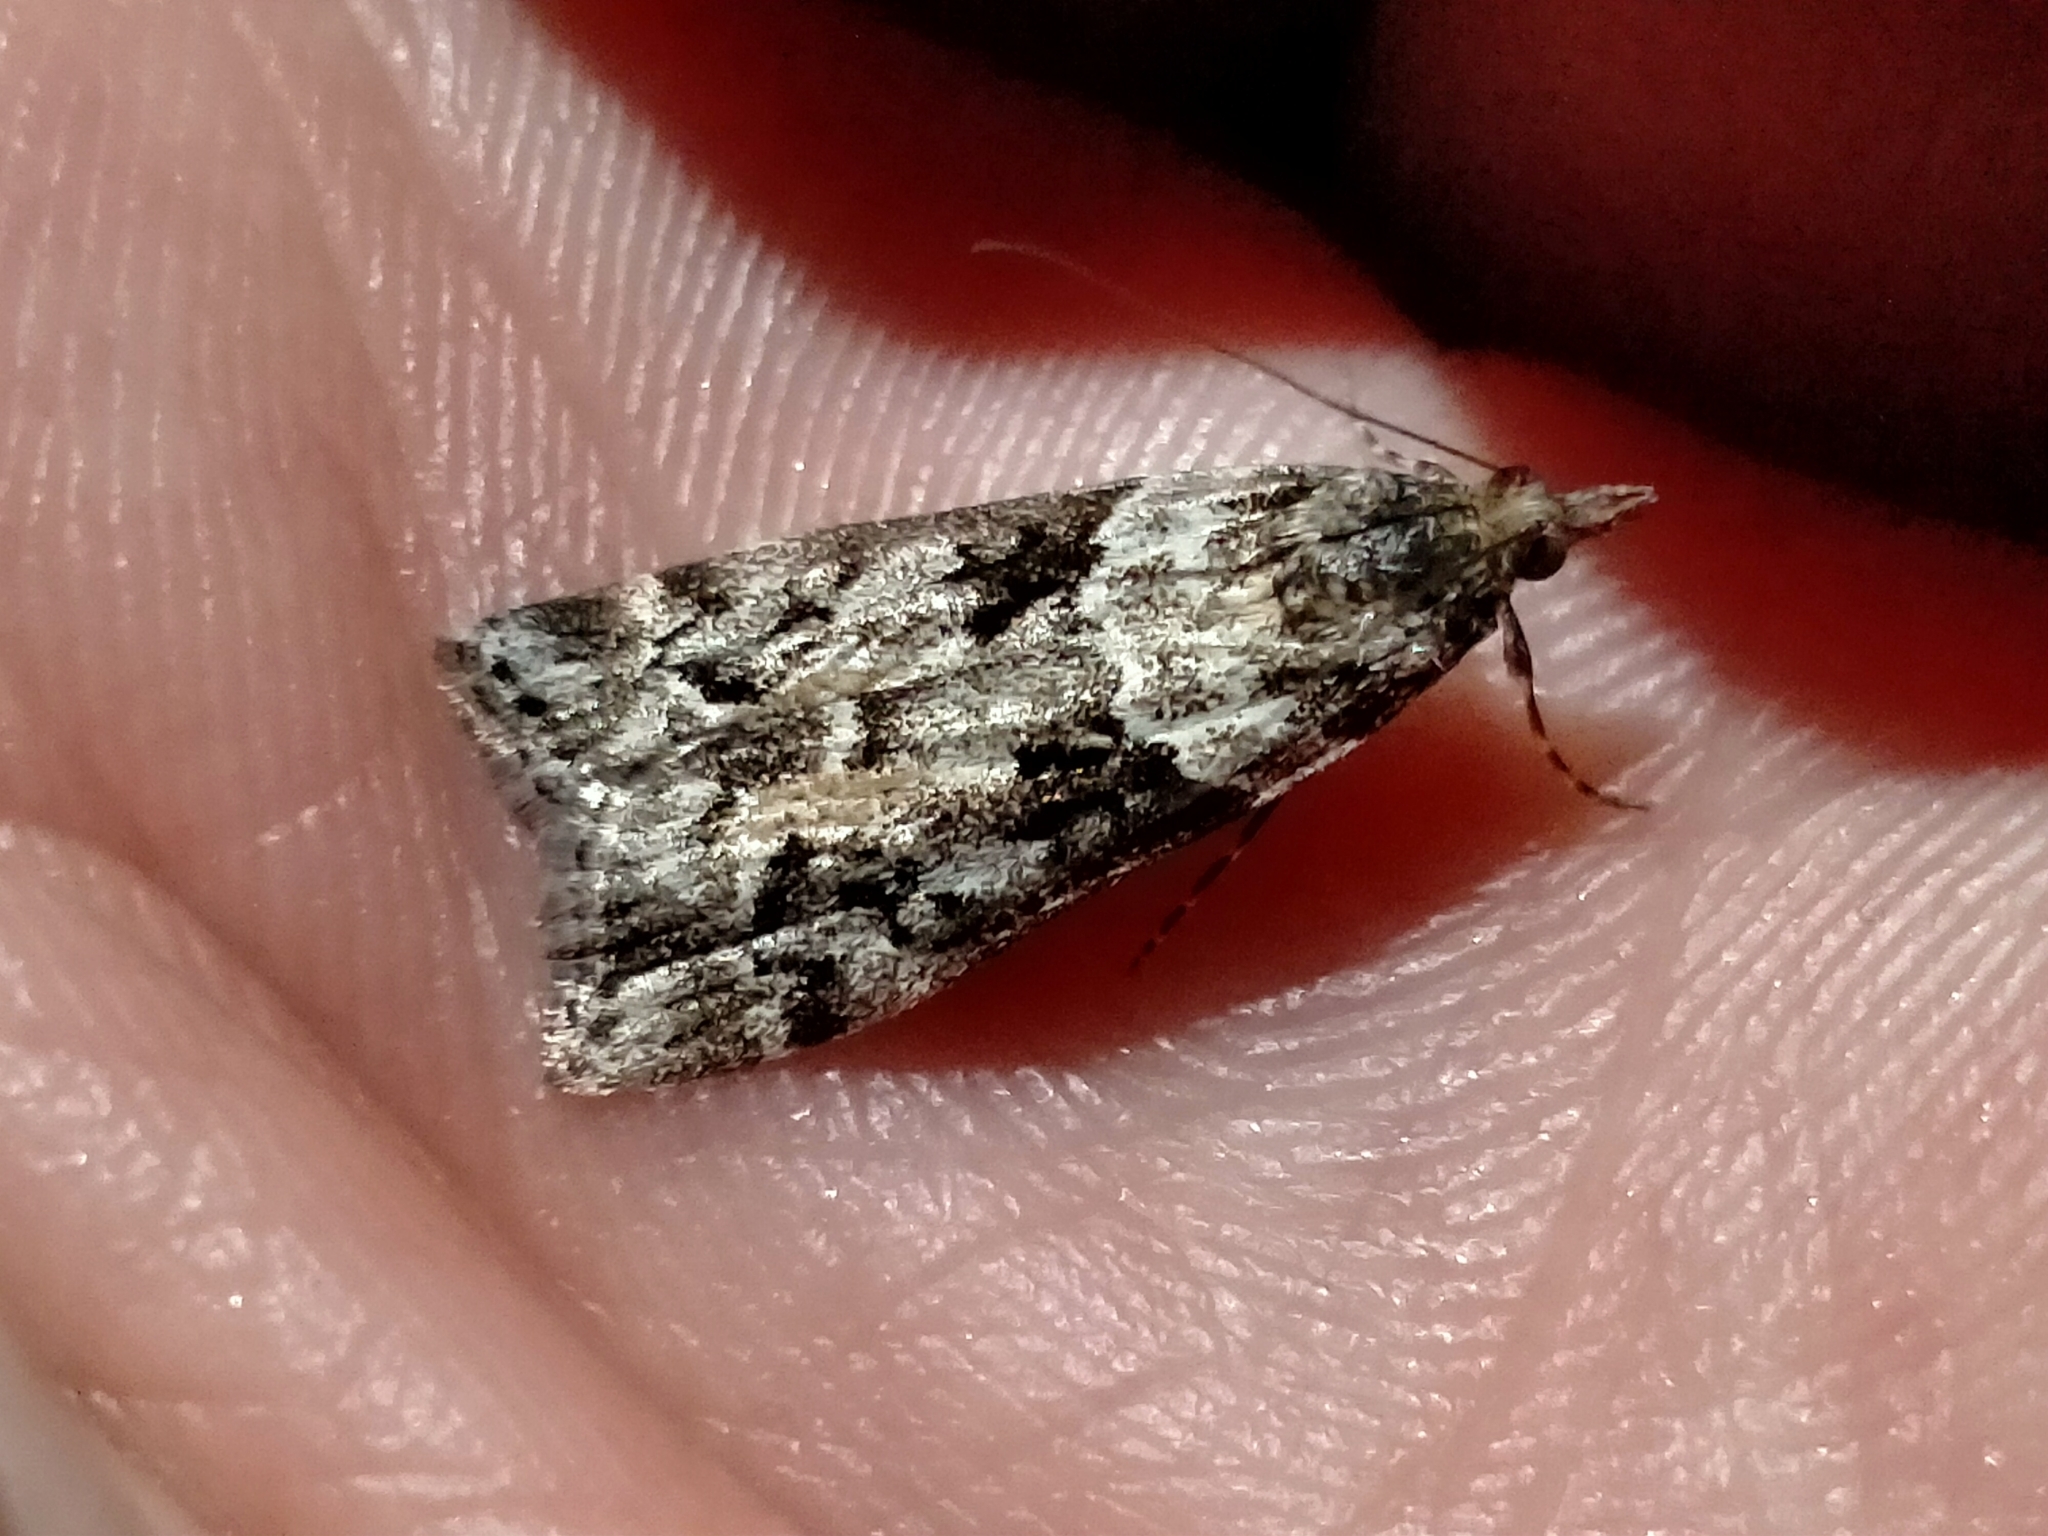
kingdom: Animalia
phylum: Arthropoda
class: Insecta
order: Lepidoptera
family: Crambidae
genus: Eudonia
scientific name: Eudonia submarginalis
